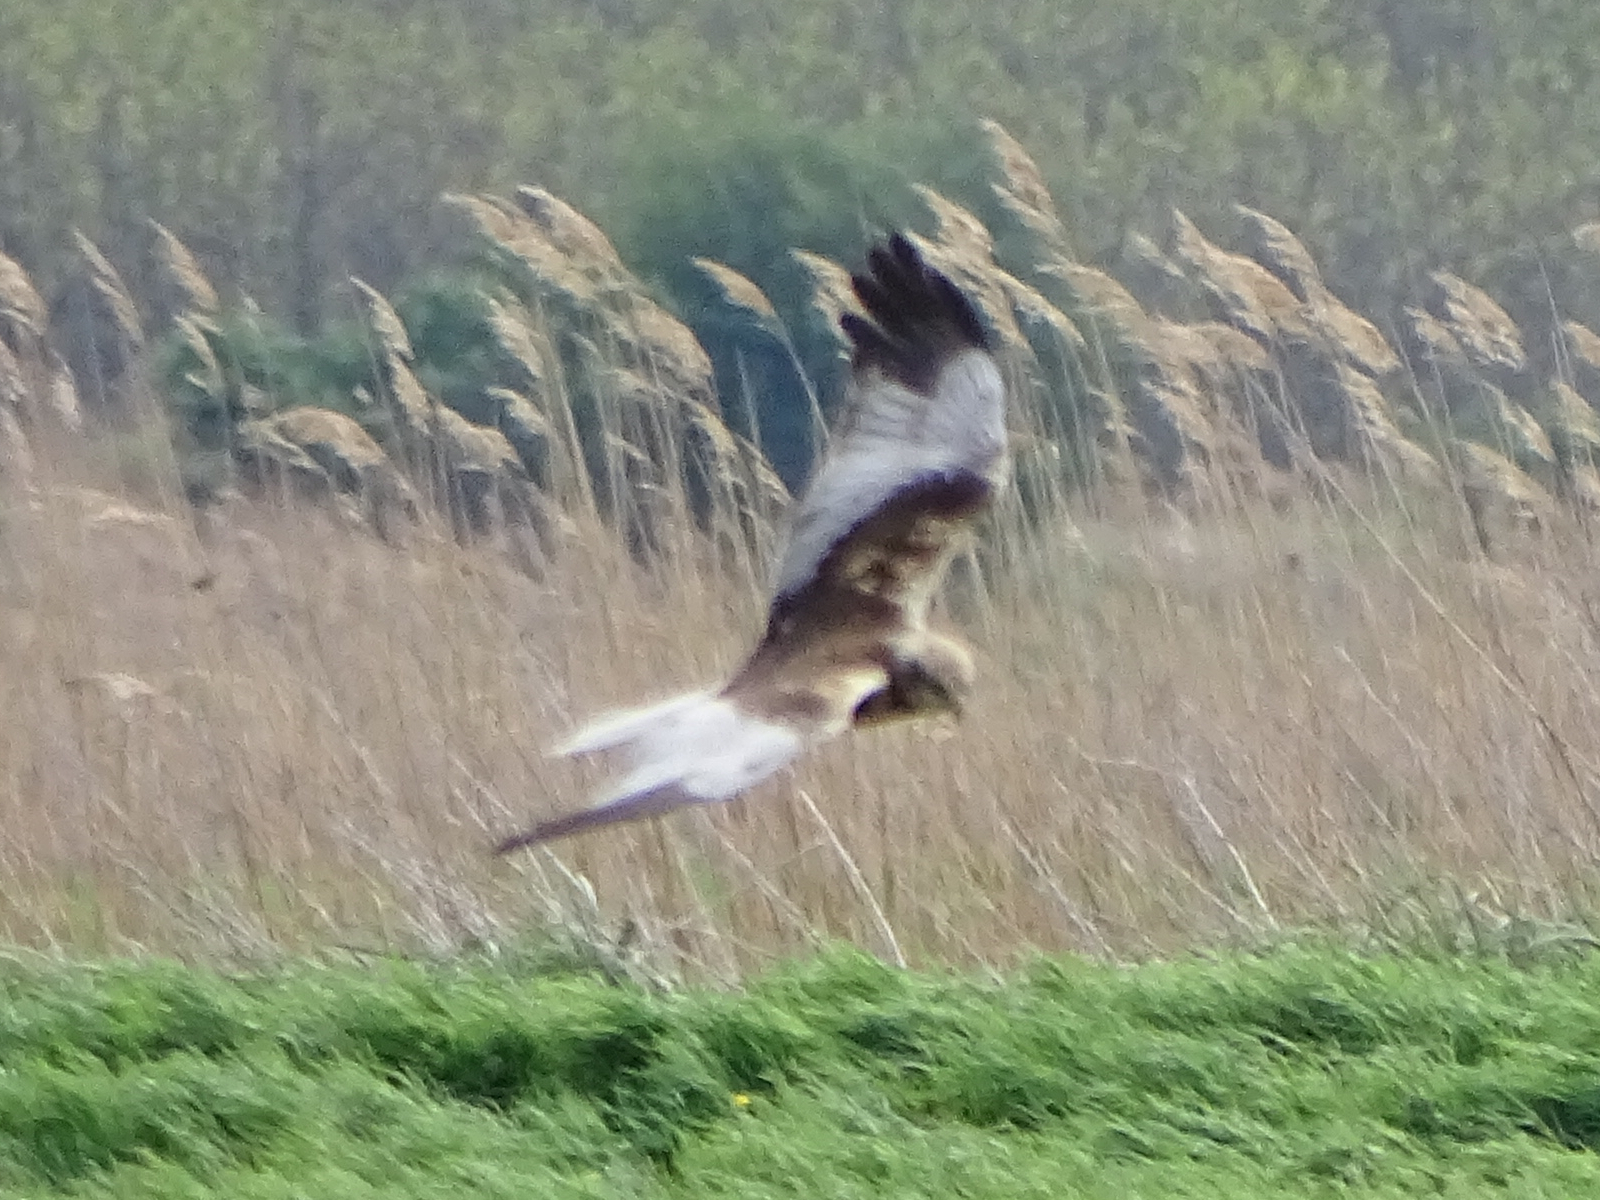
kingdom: Animalia
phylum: Chordata
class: Aves
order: Accipitriformes
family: Accipitridae
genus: Circus
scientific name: Circus aeruginosus
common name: Western marsh harrier
